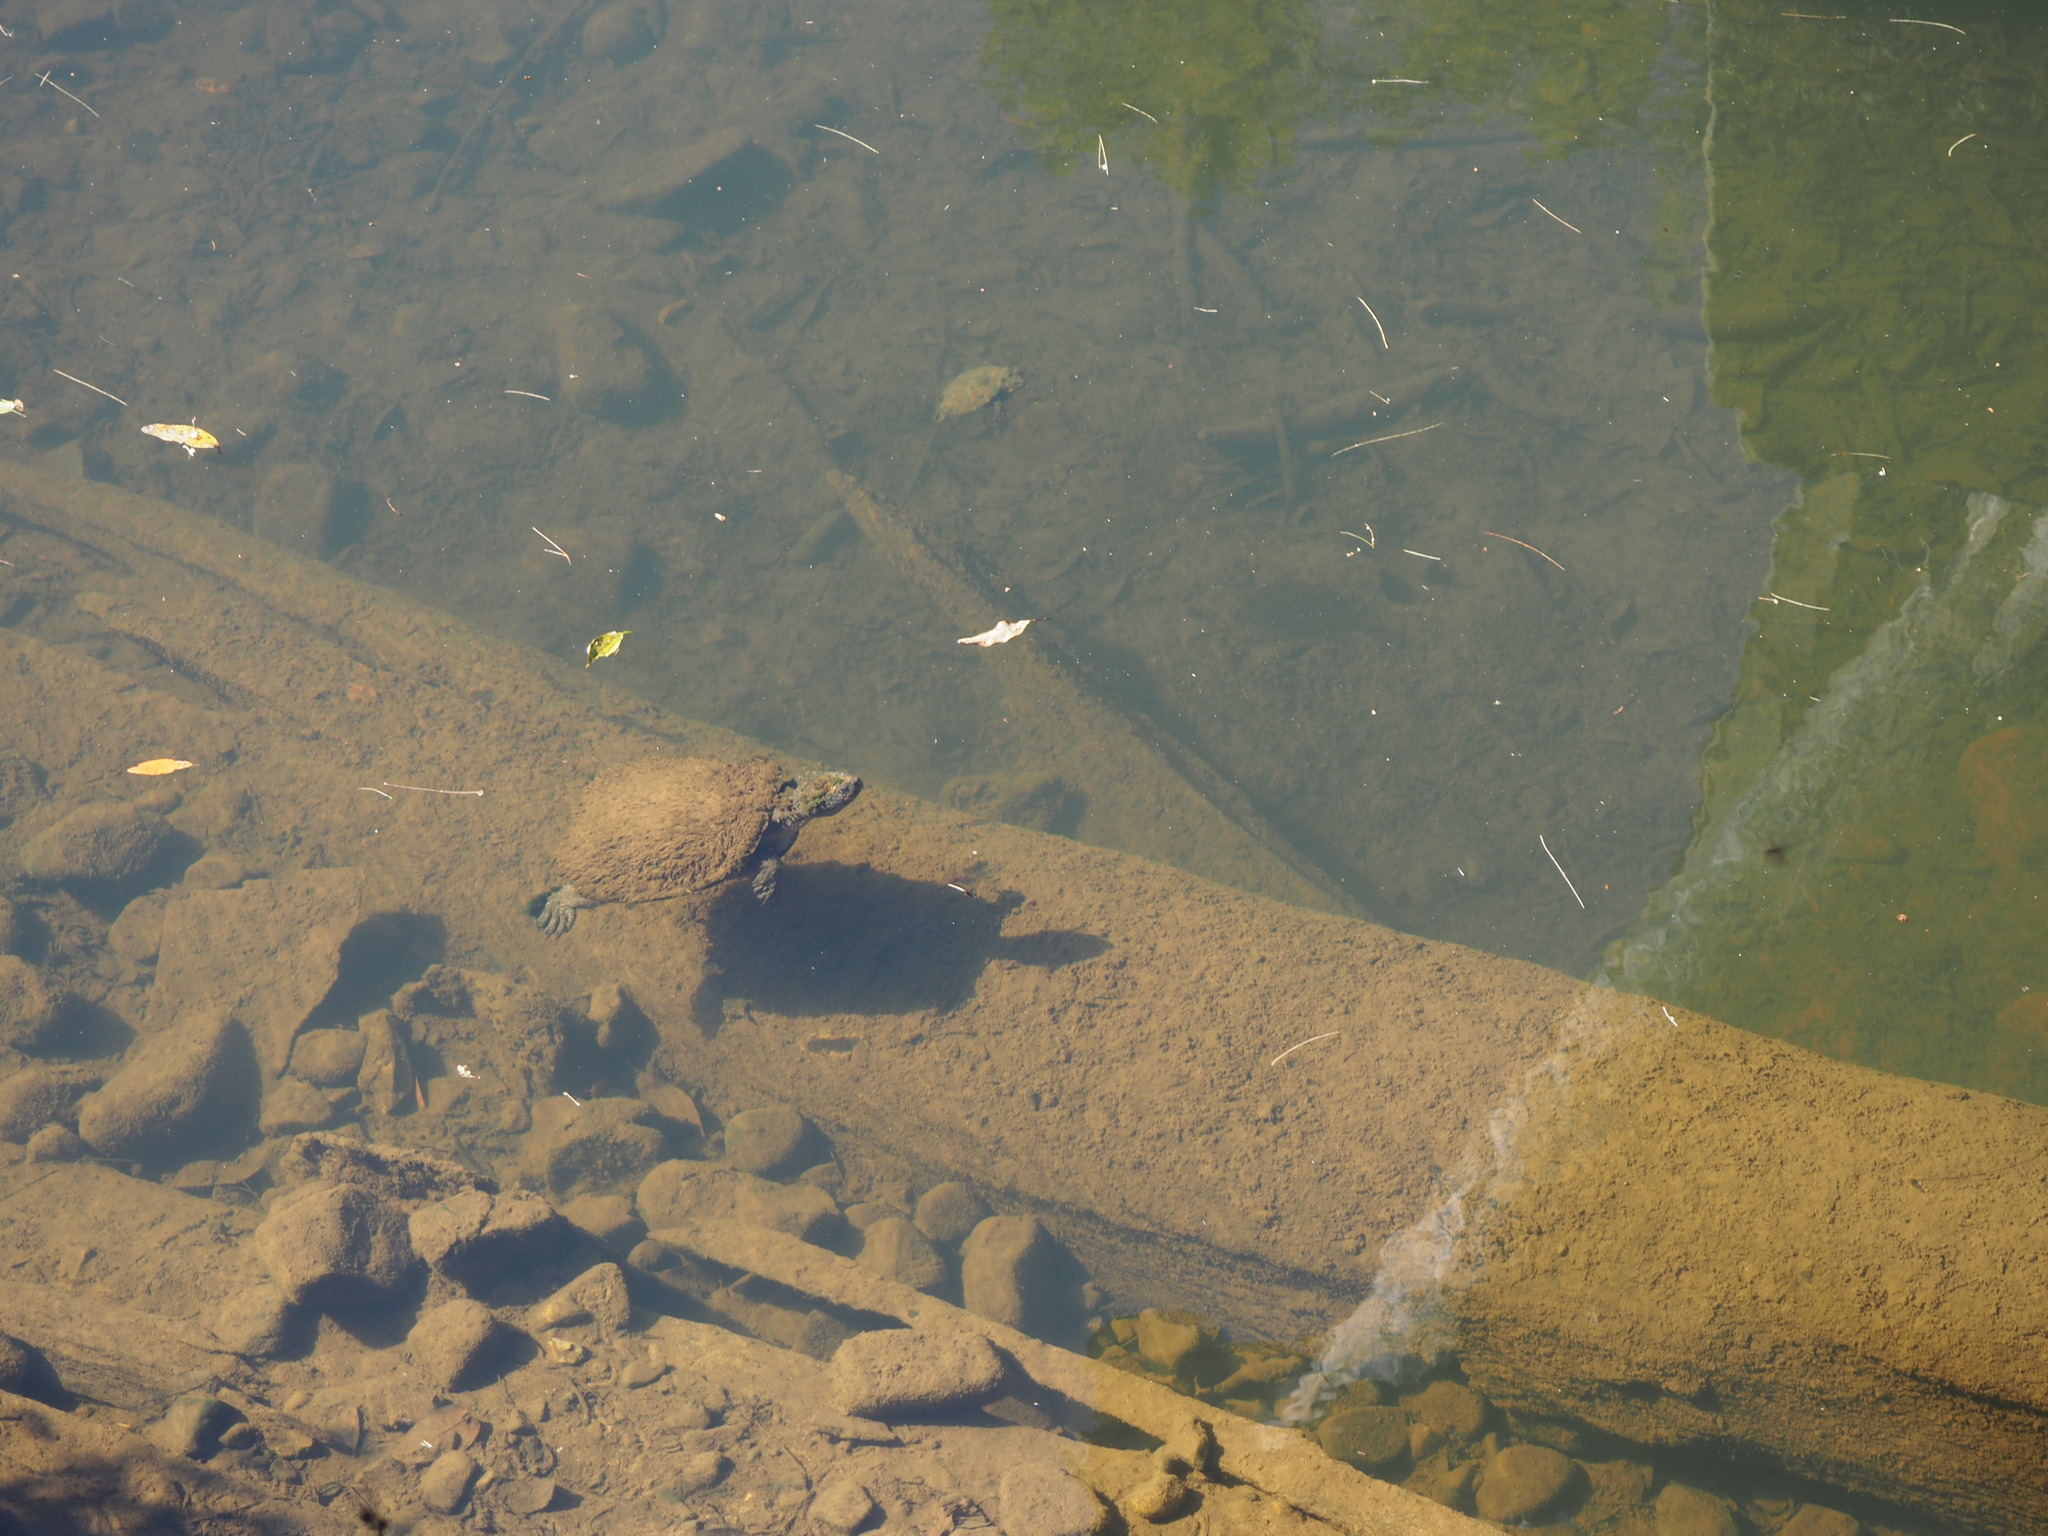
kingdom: Animalia
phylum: Chordata
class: Testudines
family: Chelidae
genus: Myuchelys
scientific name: Myuchelys latisternum
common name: Serrated snapping turtle
